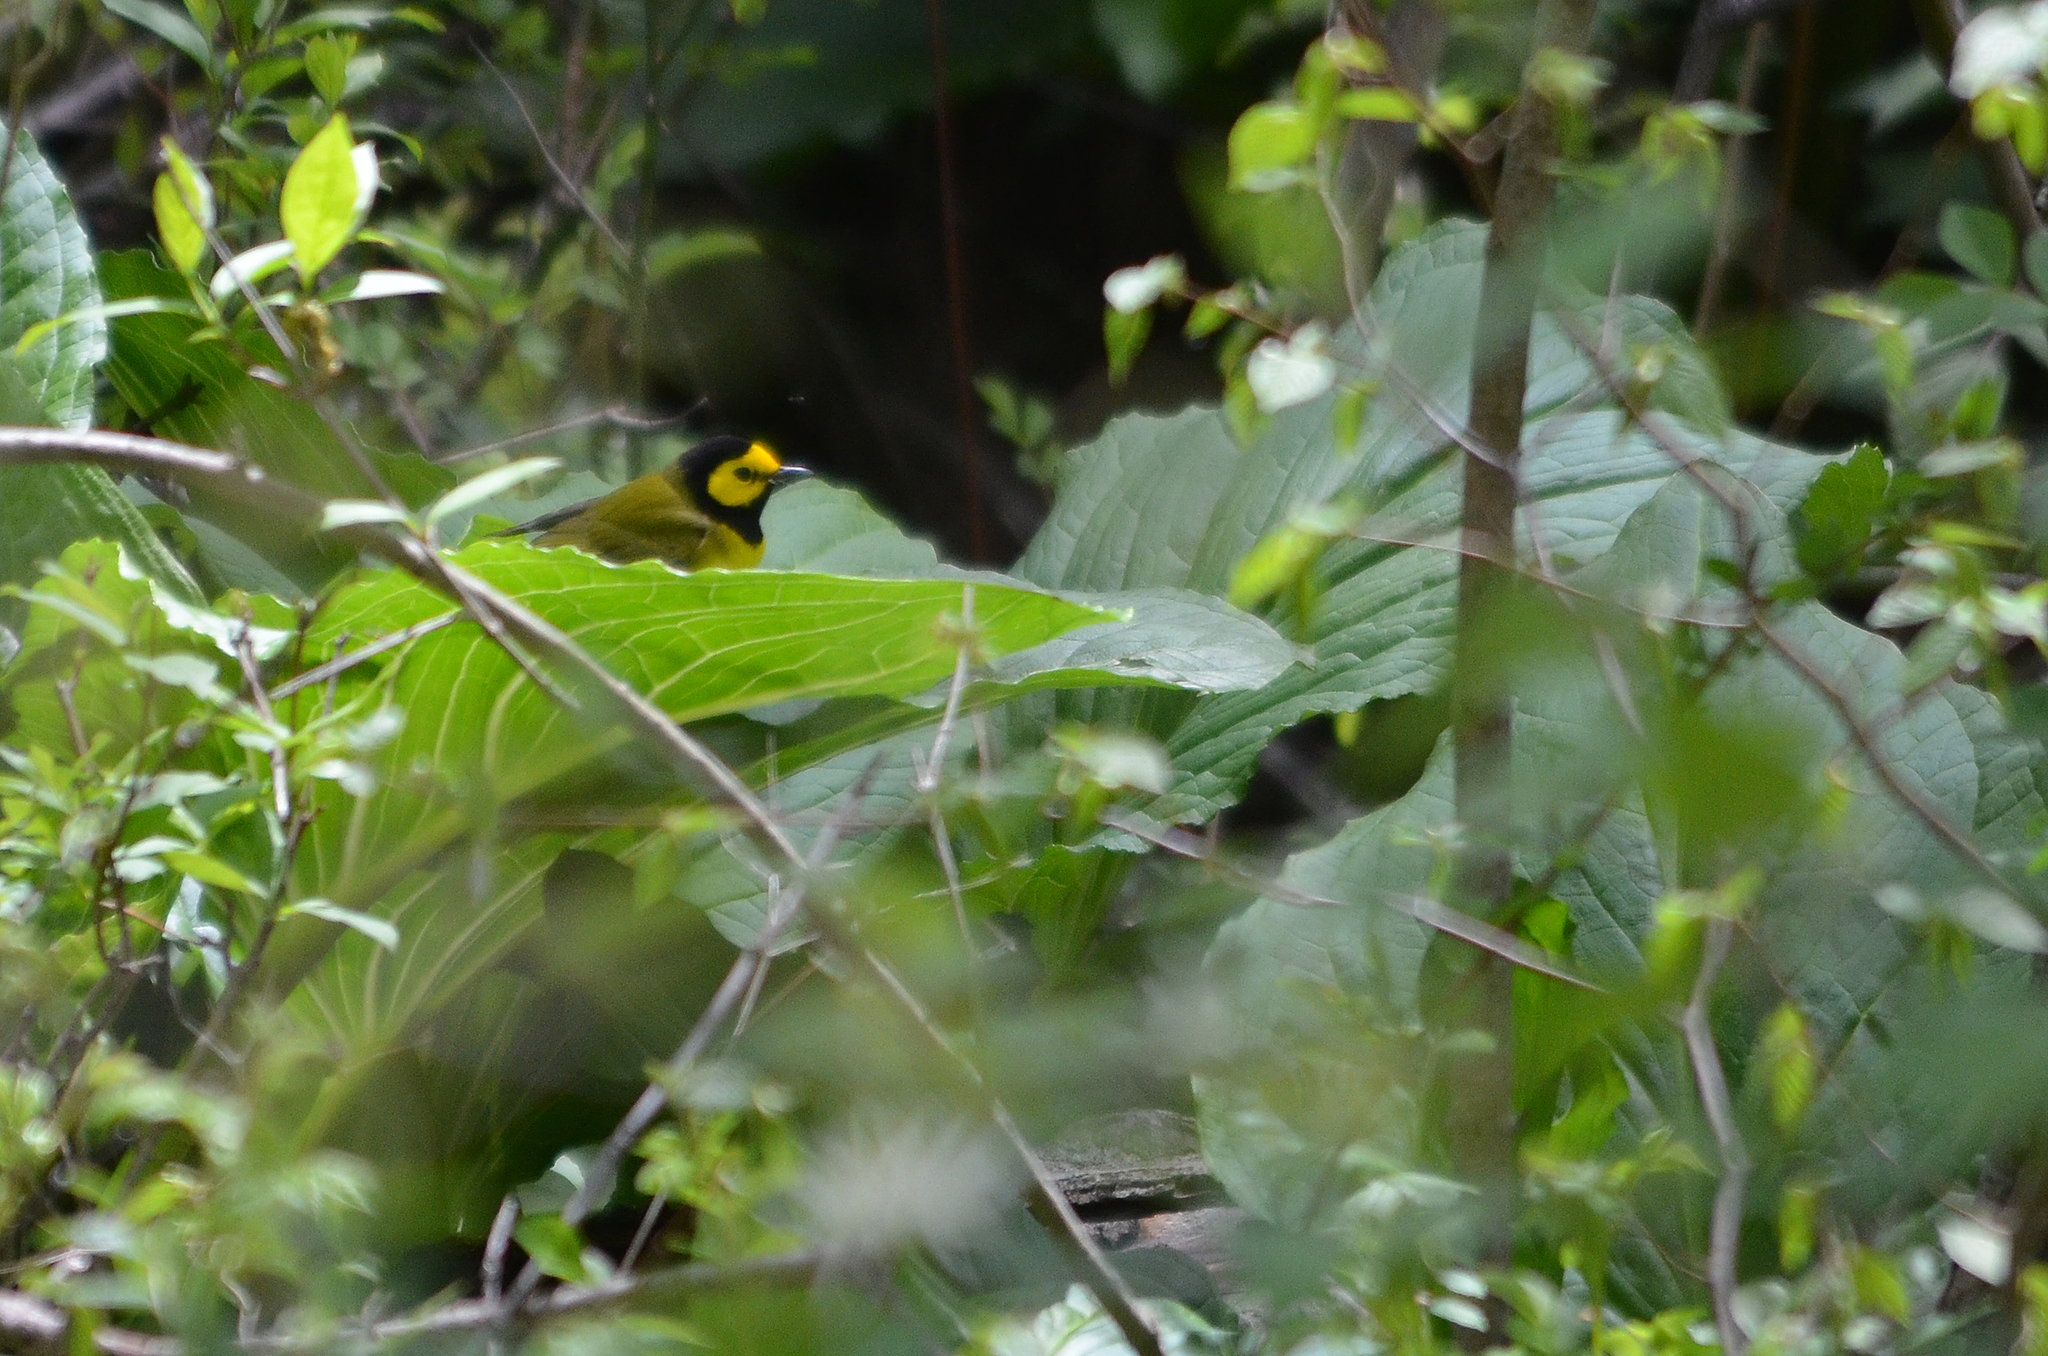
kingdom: Animalia
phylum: Chordata
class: Aves
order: Passeriformes
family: Parulidae
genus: Setophaga
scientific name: Setophaga citrina
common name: Hooded warbler
